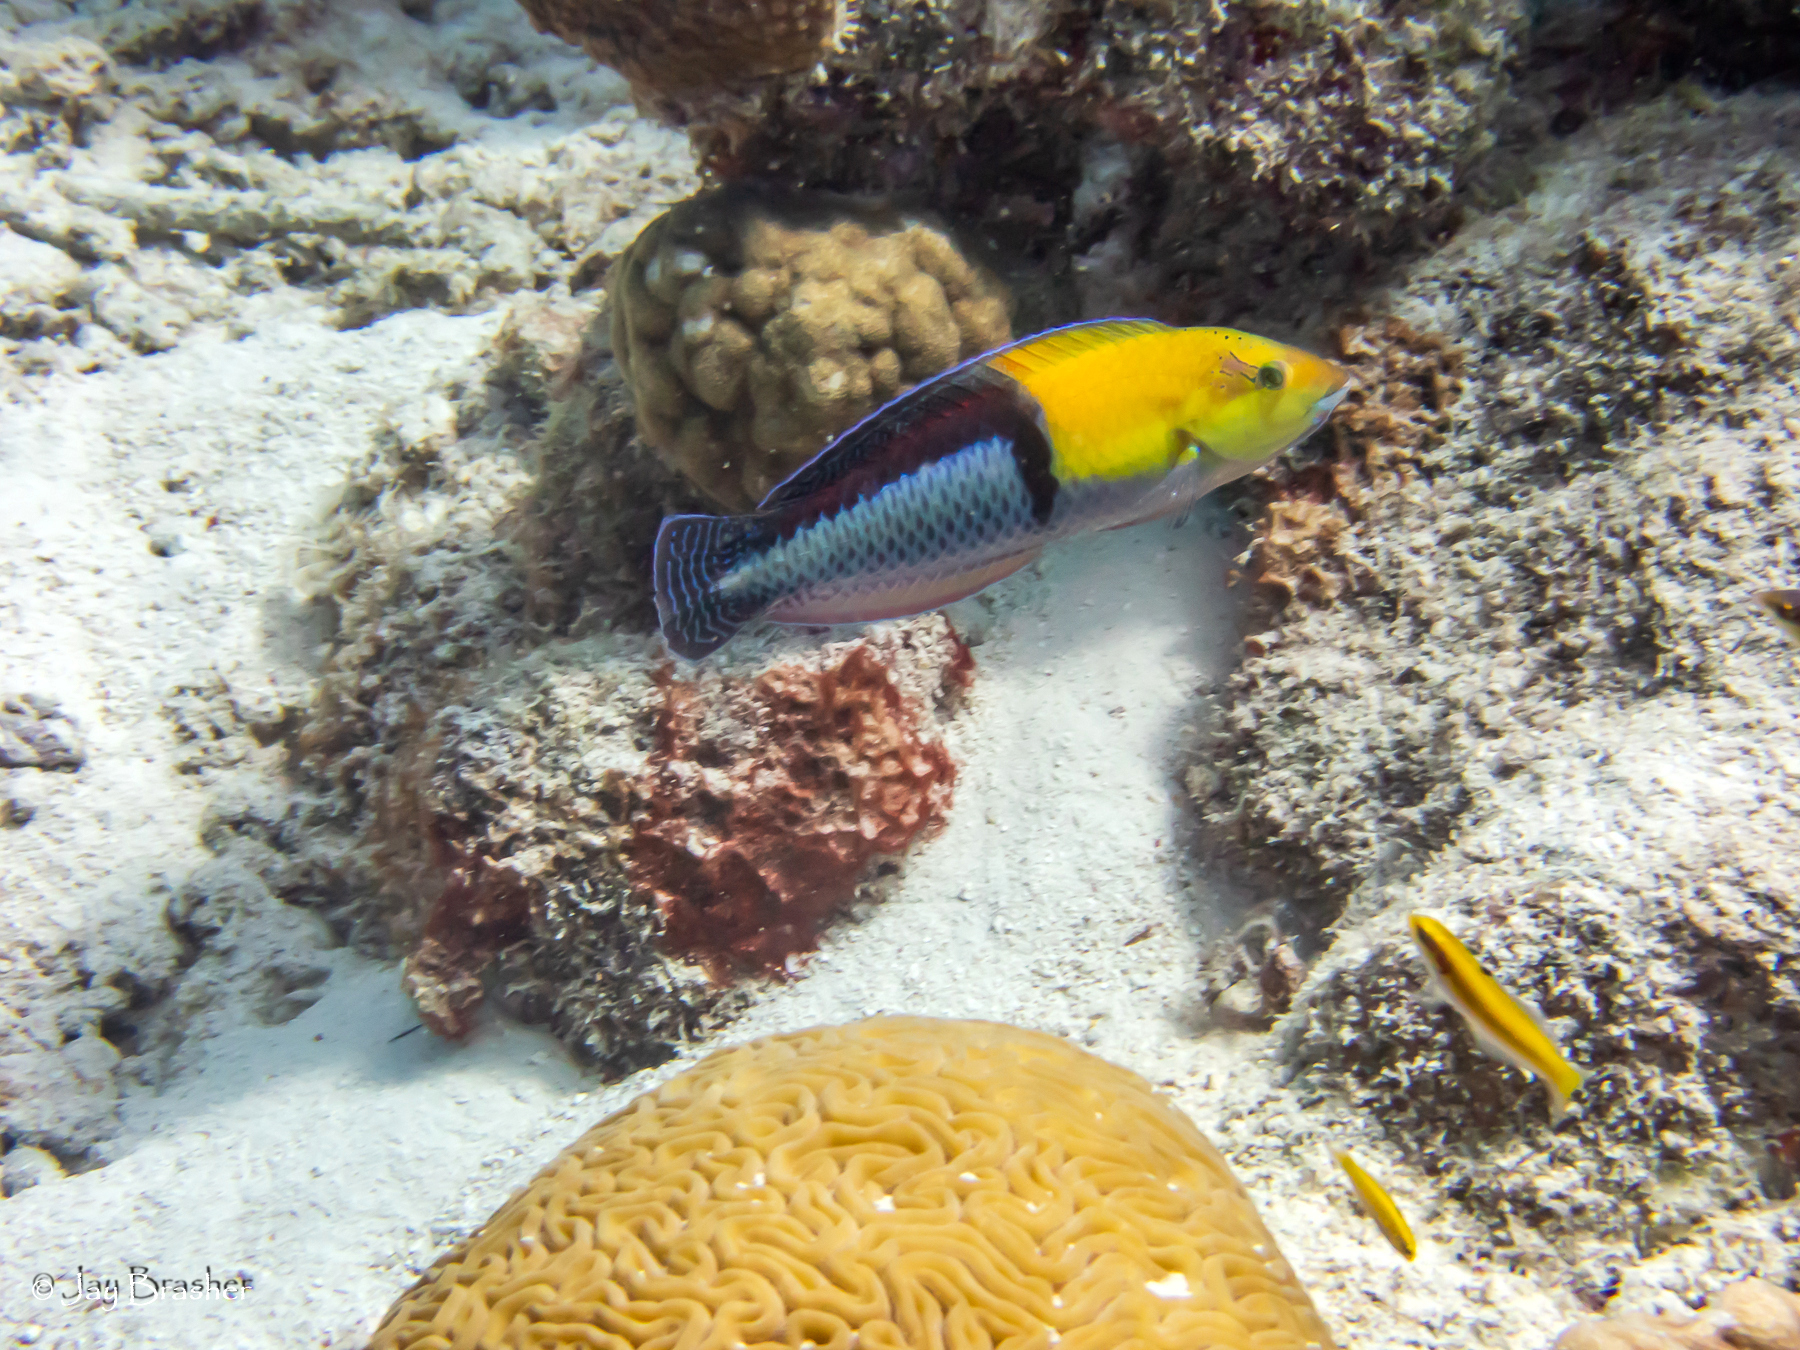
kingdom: Animalia
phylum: Chordata
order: Perciformes
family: Labridae
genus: Thalassoma
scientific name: Thalassoma bifasciatum
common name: Bluehead wrasse
